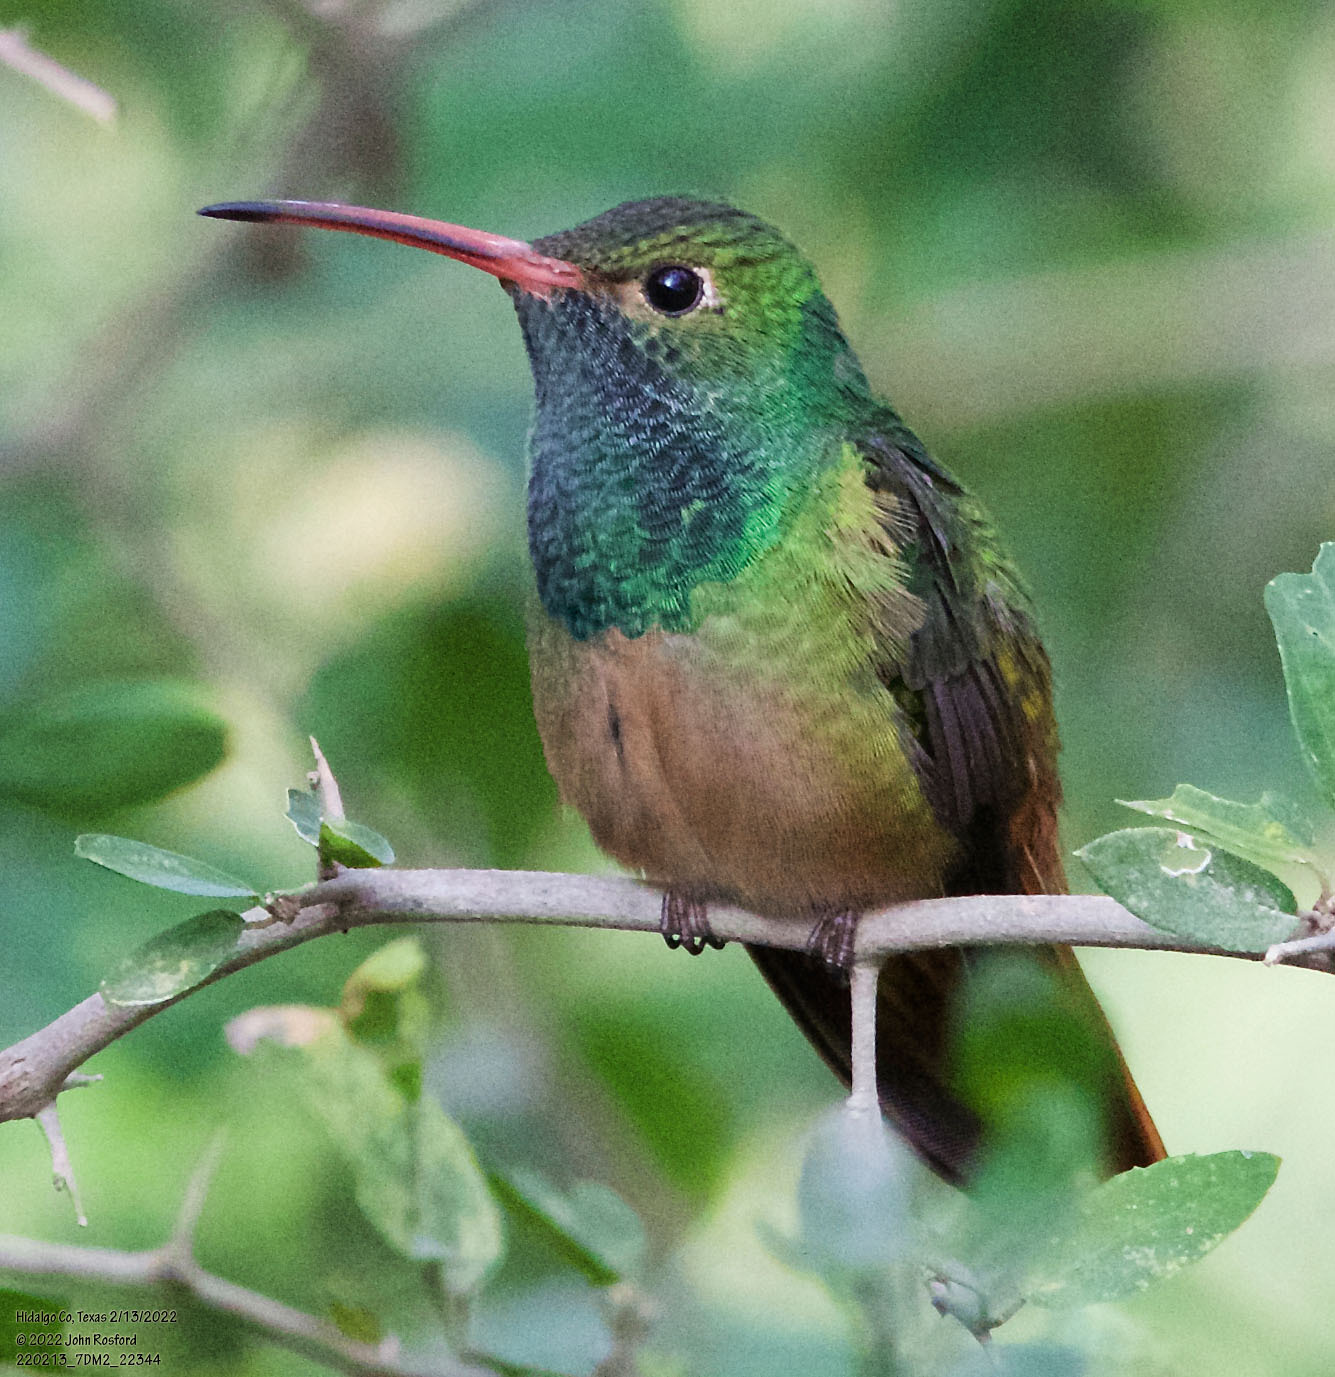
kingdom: Animalia
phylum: Chordata
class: Aves
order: Apodiformes
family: Trochilidae
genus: Amazilia
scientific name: Amazilia yucatanensis
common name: Buff-bellied hummingbird
